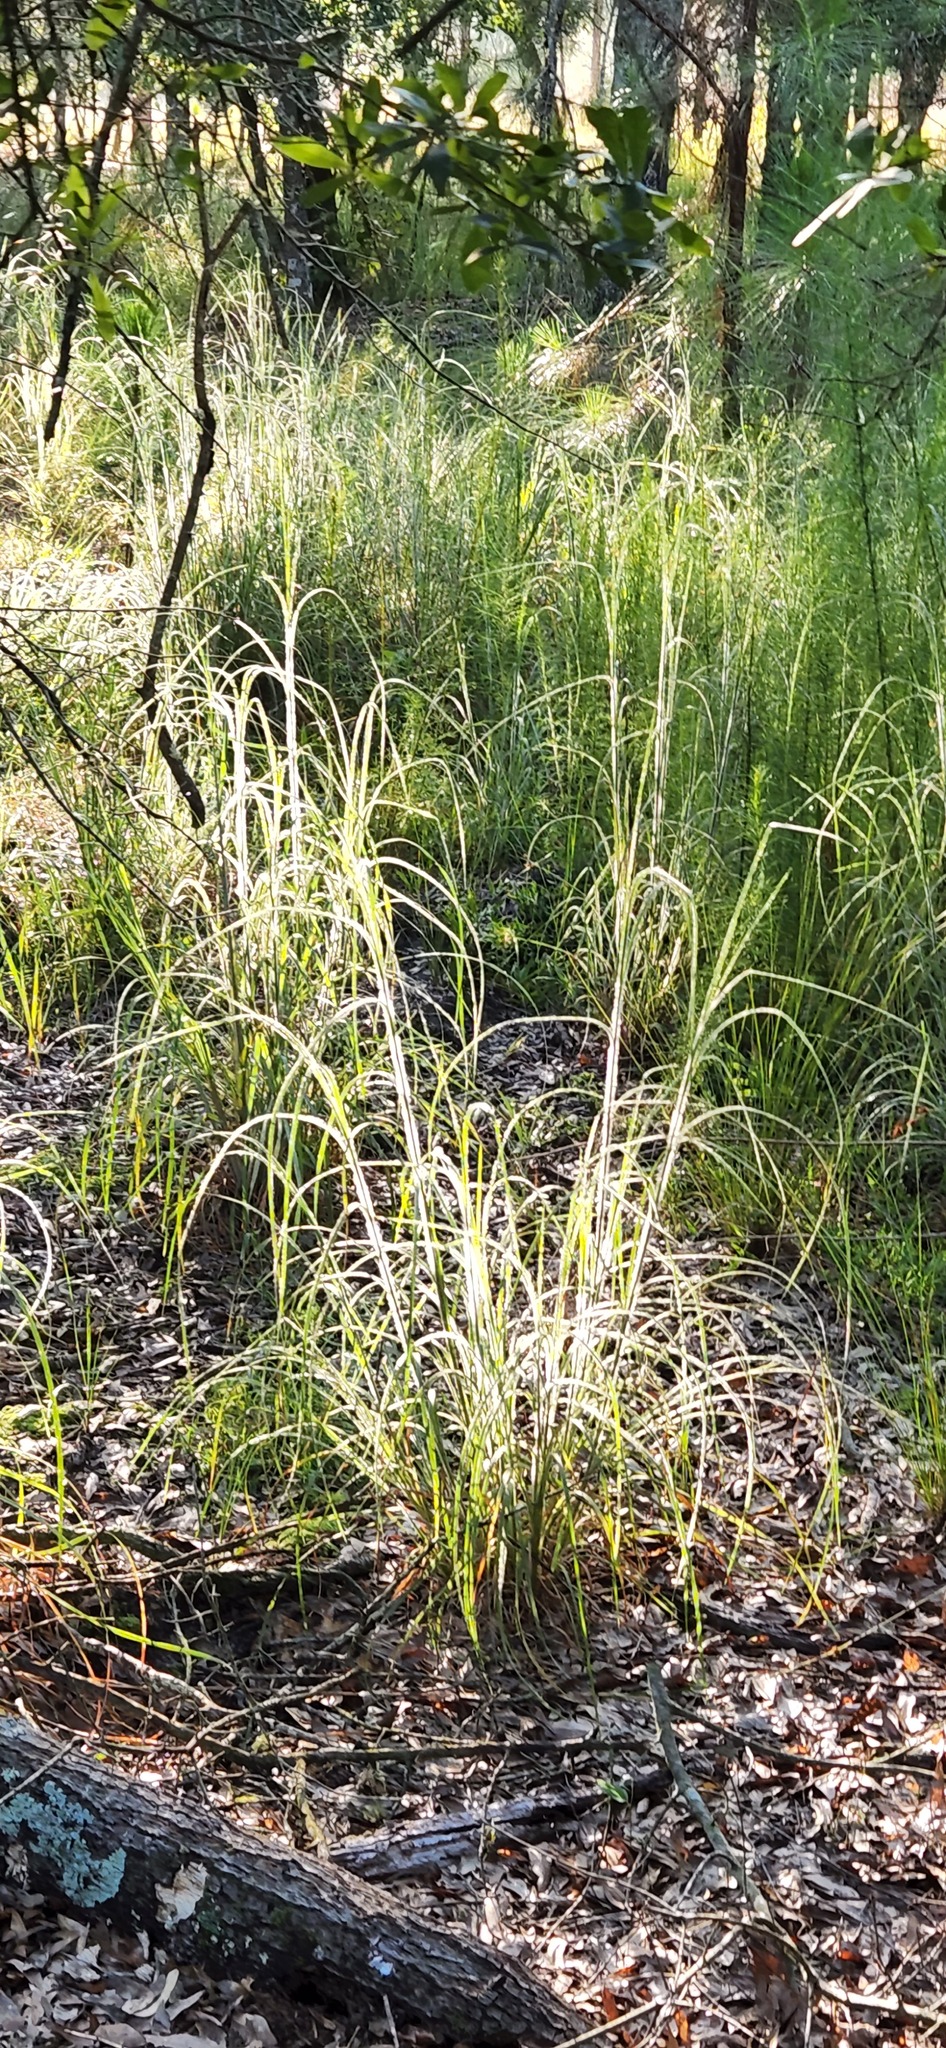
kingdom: Plantae
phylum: Tracheophyta
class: Liliopsida
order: Poales
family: Poaceae
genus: Andropogon
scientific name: Andropogon hirsutior
